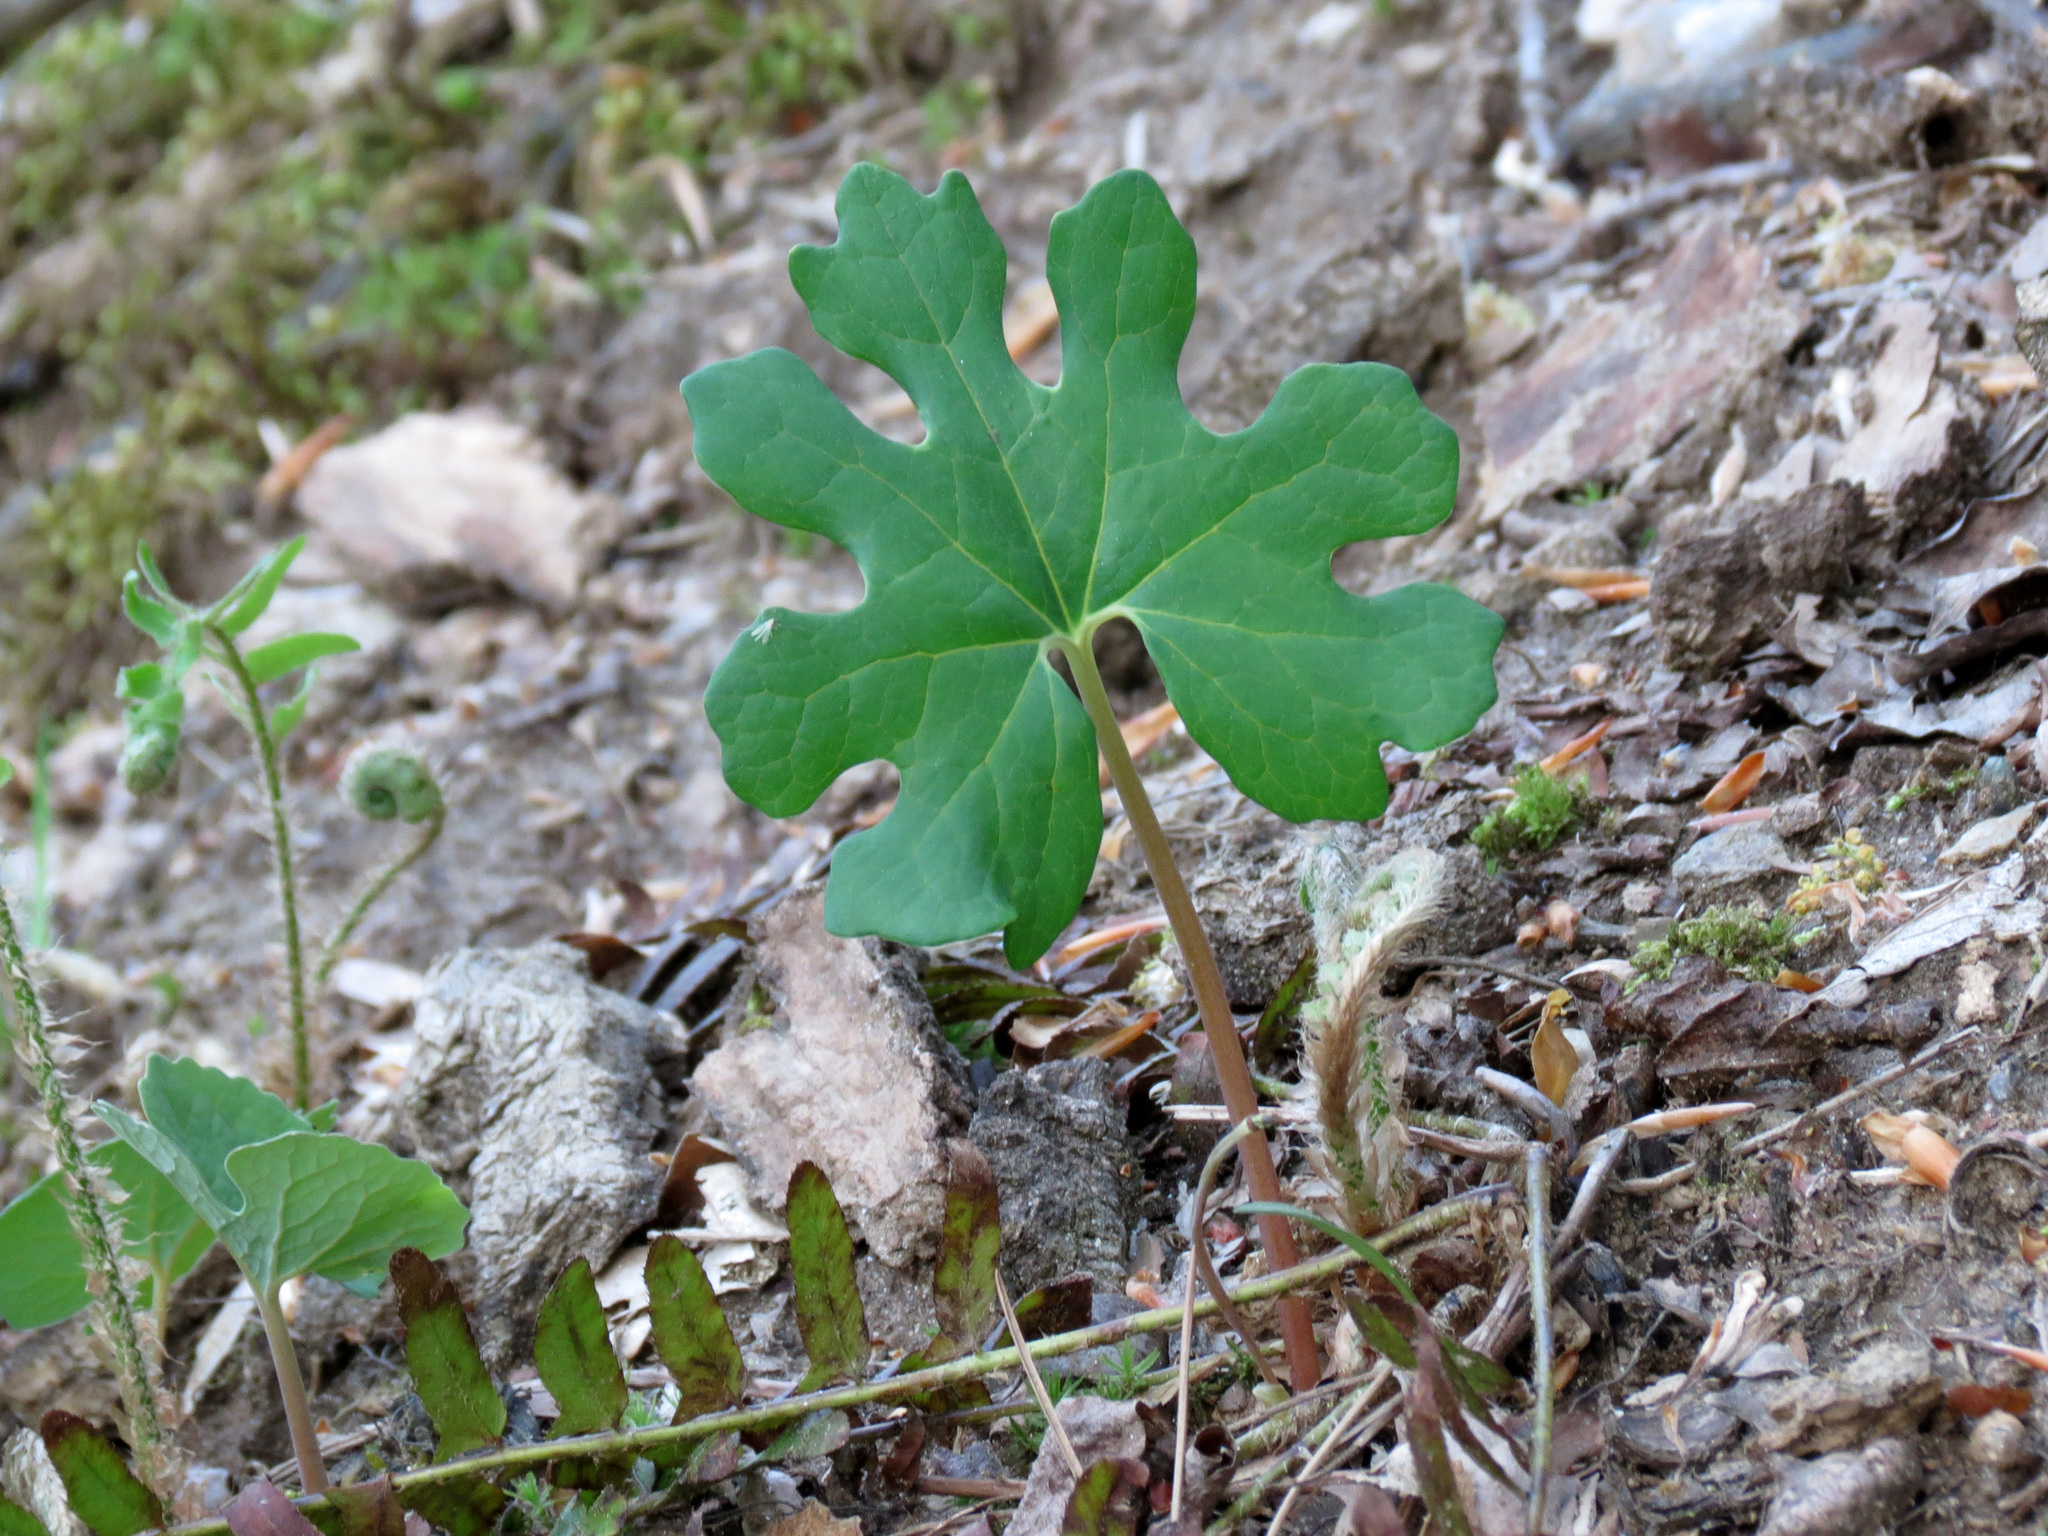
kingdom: Plantae
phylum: Tracheophyta
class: Magnoliopsida
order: Ranunculales
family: Papaveraceae
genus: Sanguinaria
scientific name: Sanguinaria canadensis
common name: Bloodroot
